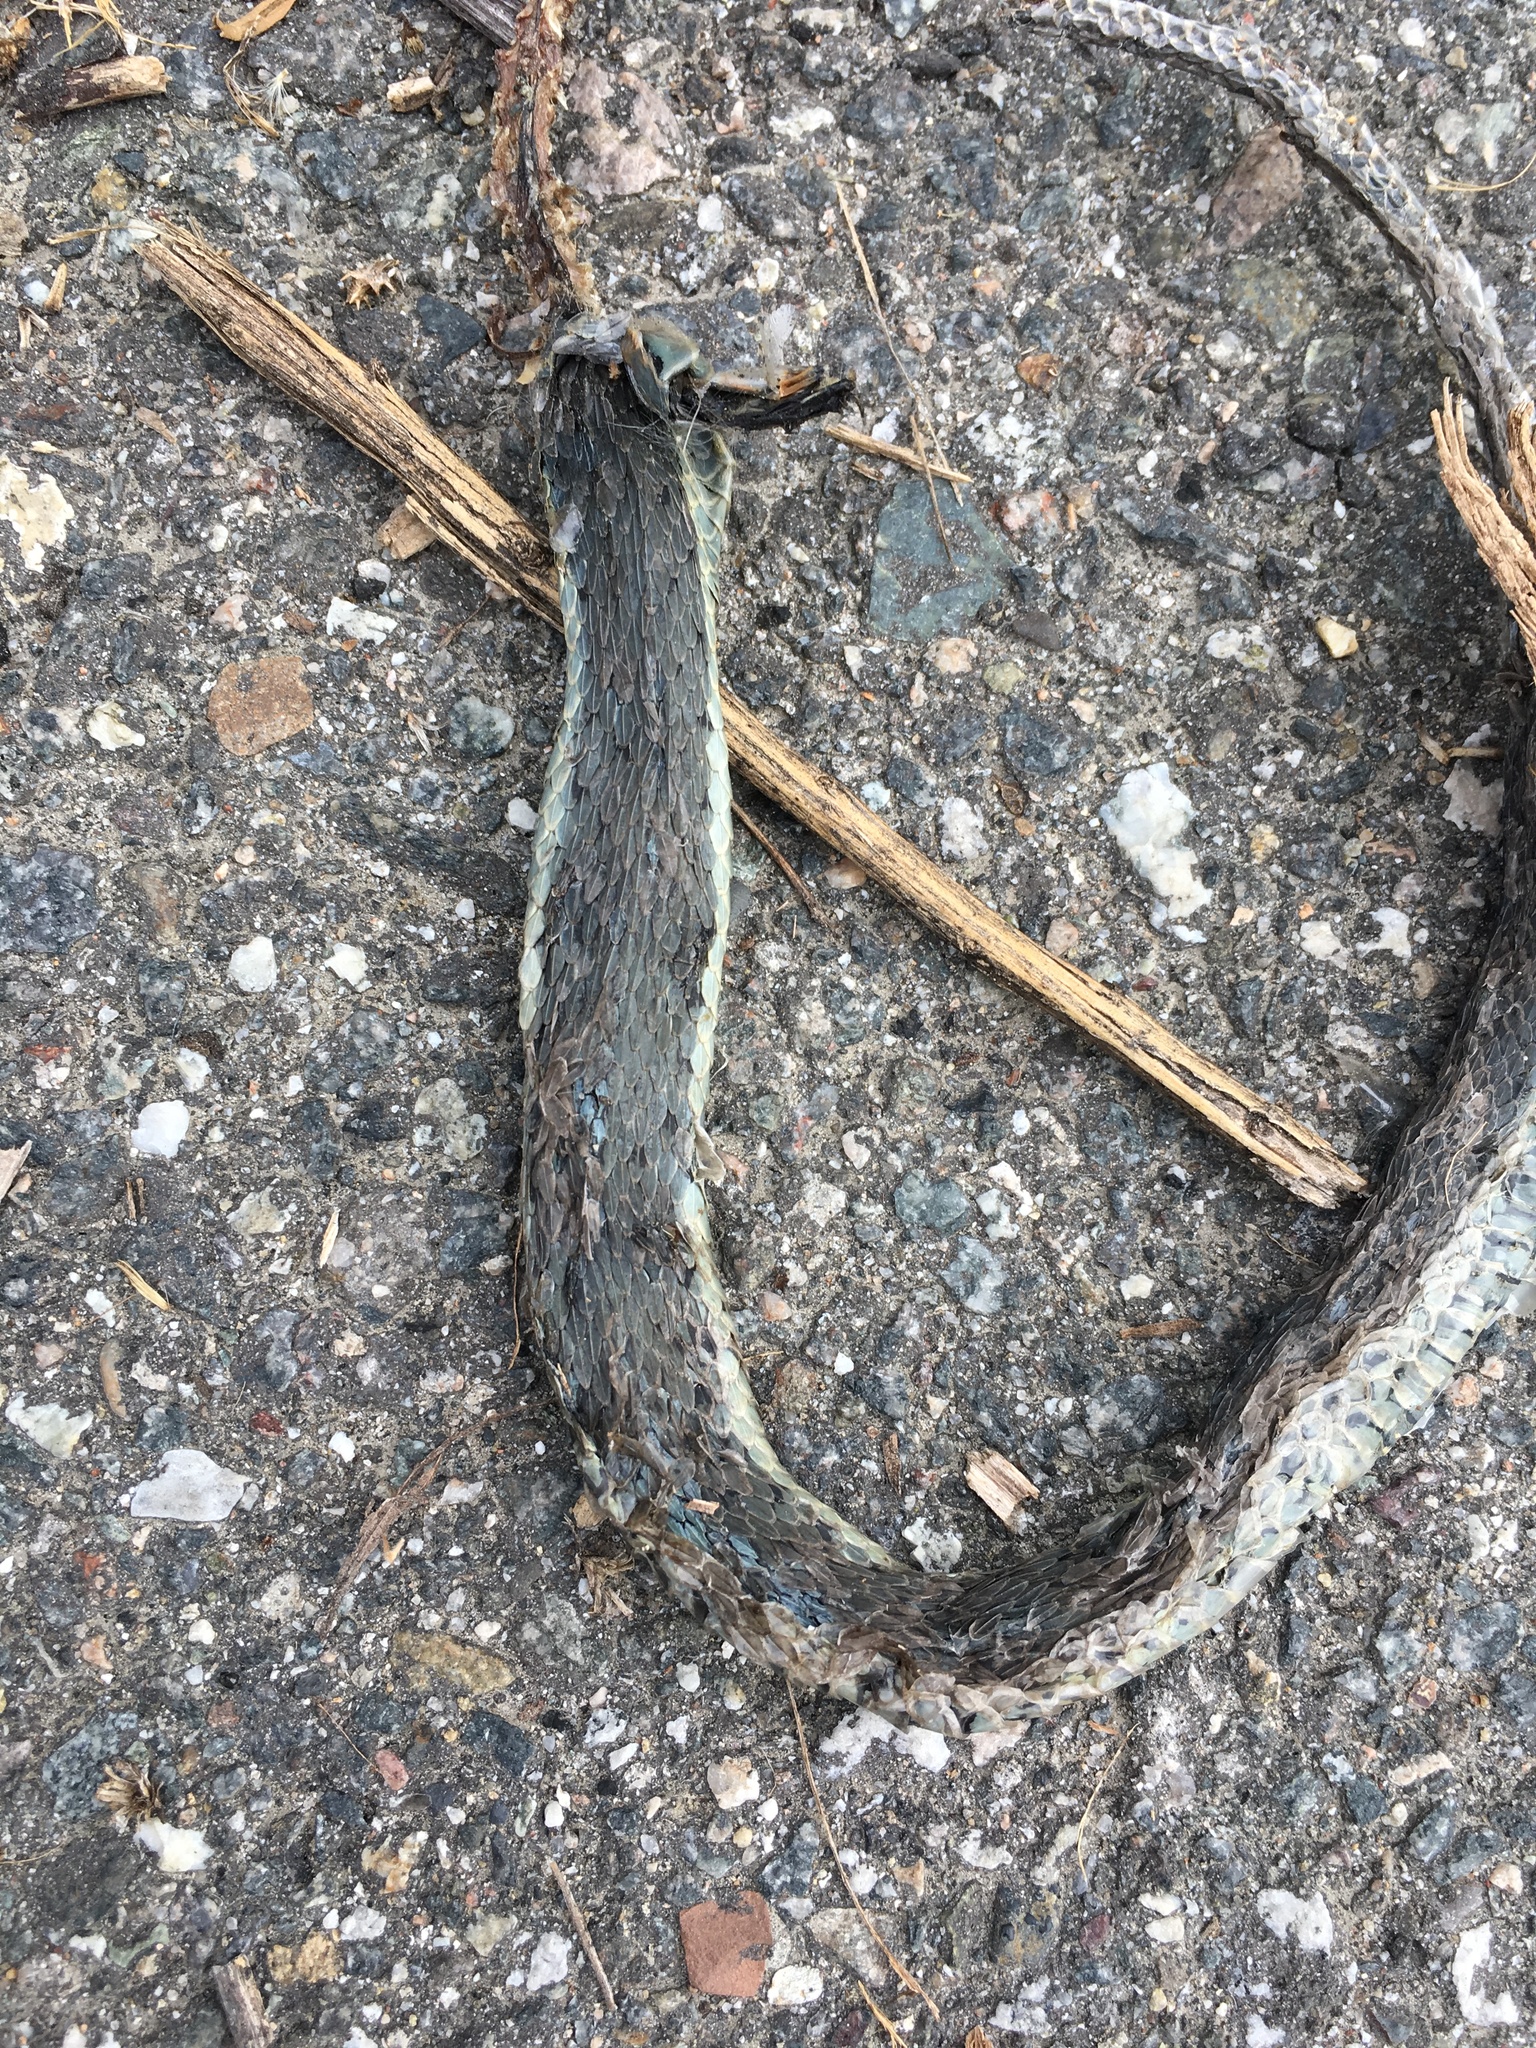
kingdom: Animalia
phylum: Chordata
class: Squamata
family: Colubridae
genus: Thamnophis
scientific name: Thamnophis hammondii
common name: Two-striped garter snake
